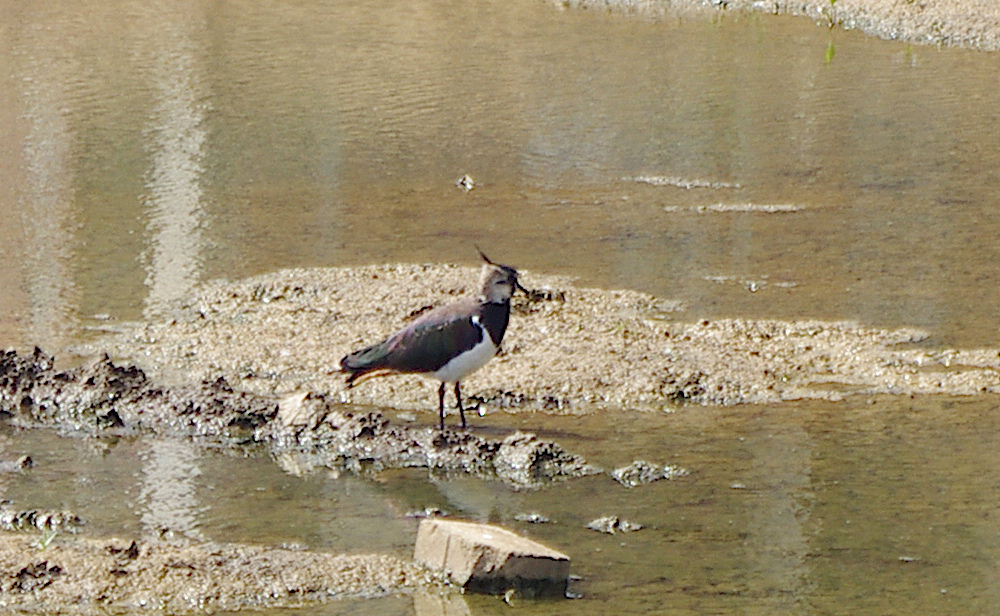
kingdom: Animalia
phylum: Chordata
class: Aves
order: Charadriiformes
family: Charadriidae
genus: Vanellus
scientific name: Vanellus vanellus
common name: Northern lapwing
